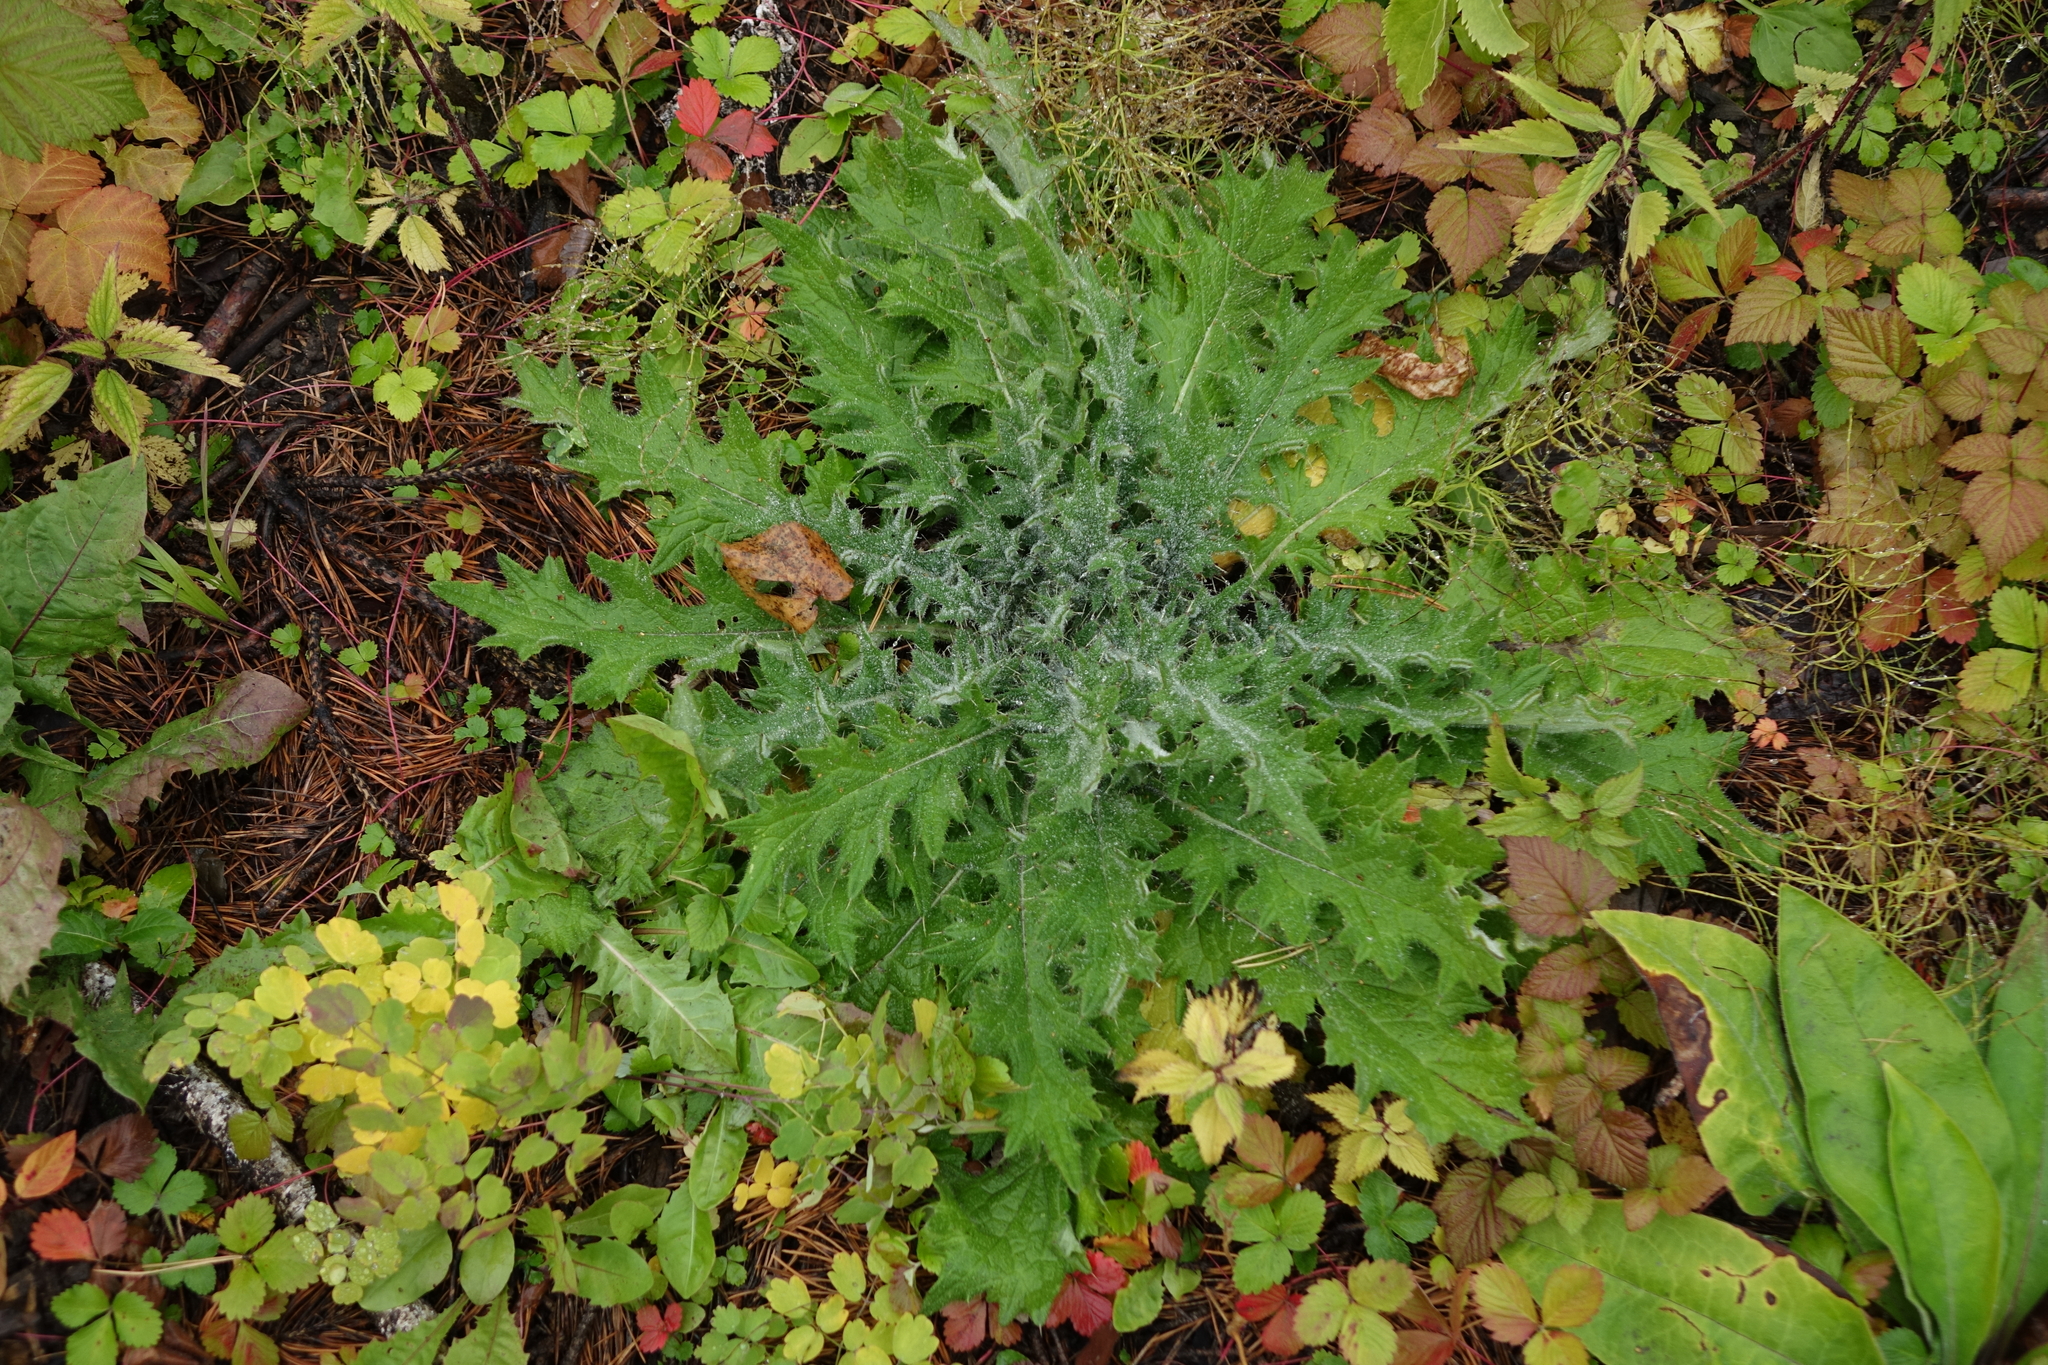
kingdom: Plantae
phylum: Tracheophyta
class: Magnoliopsida
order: Asterales
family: Asteraceae
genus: Cirsium
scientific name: Cirsium vulgare
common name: Bull thistle
